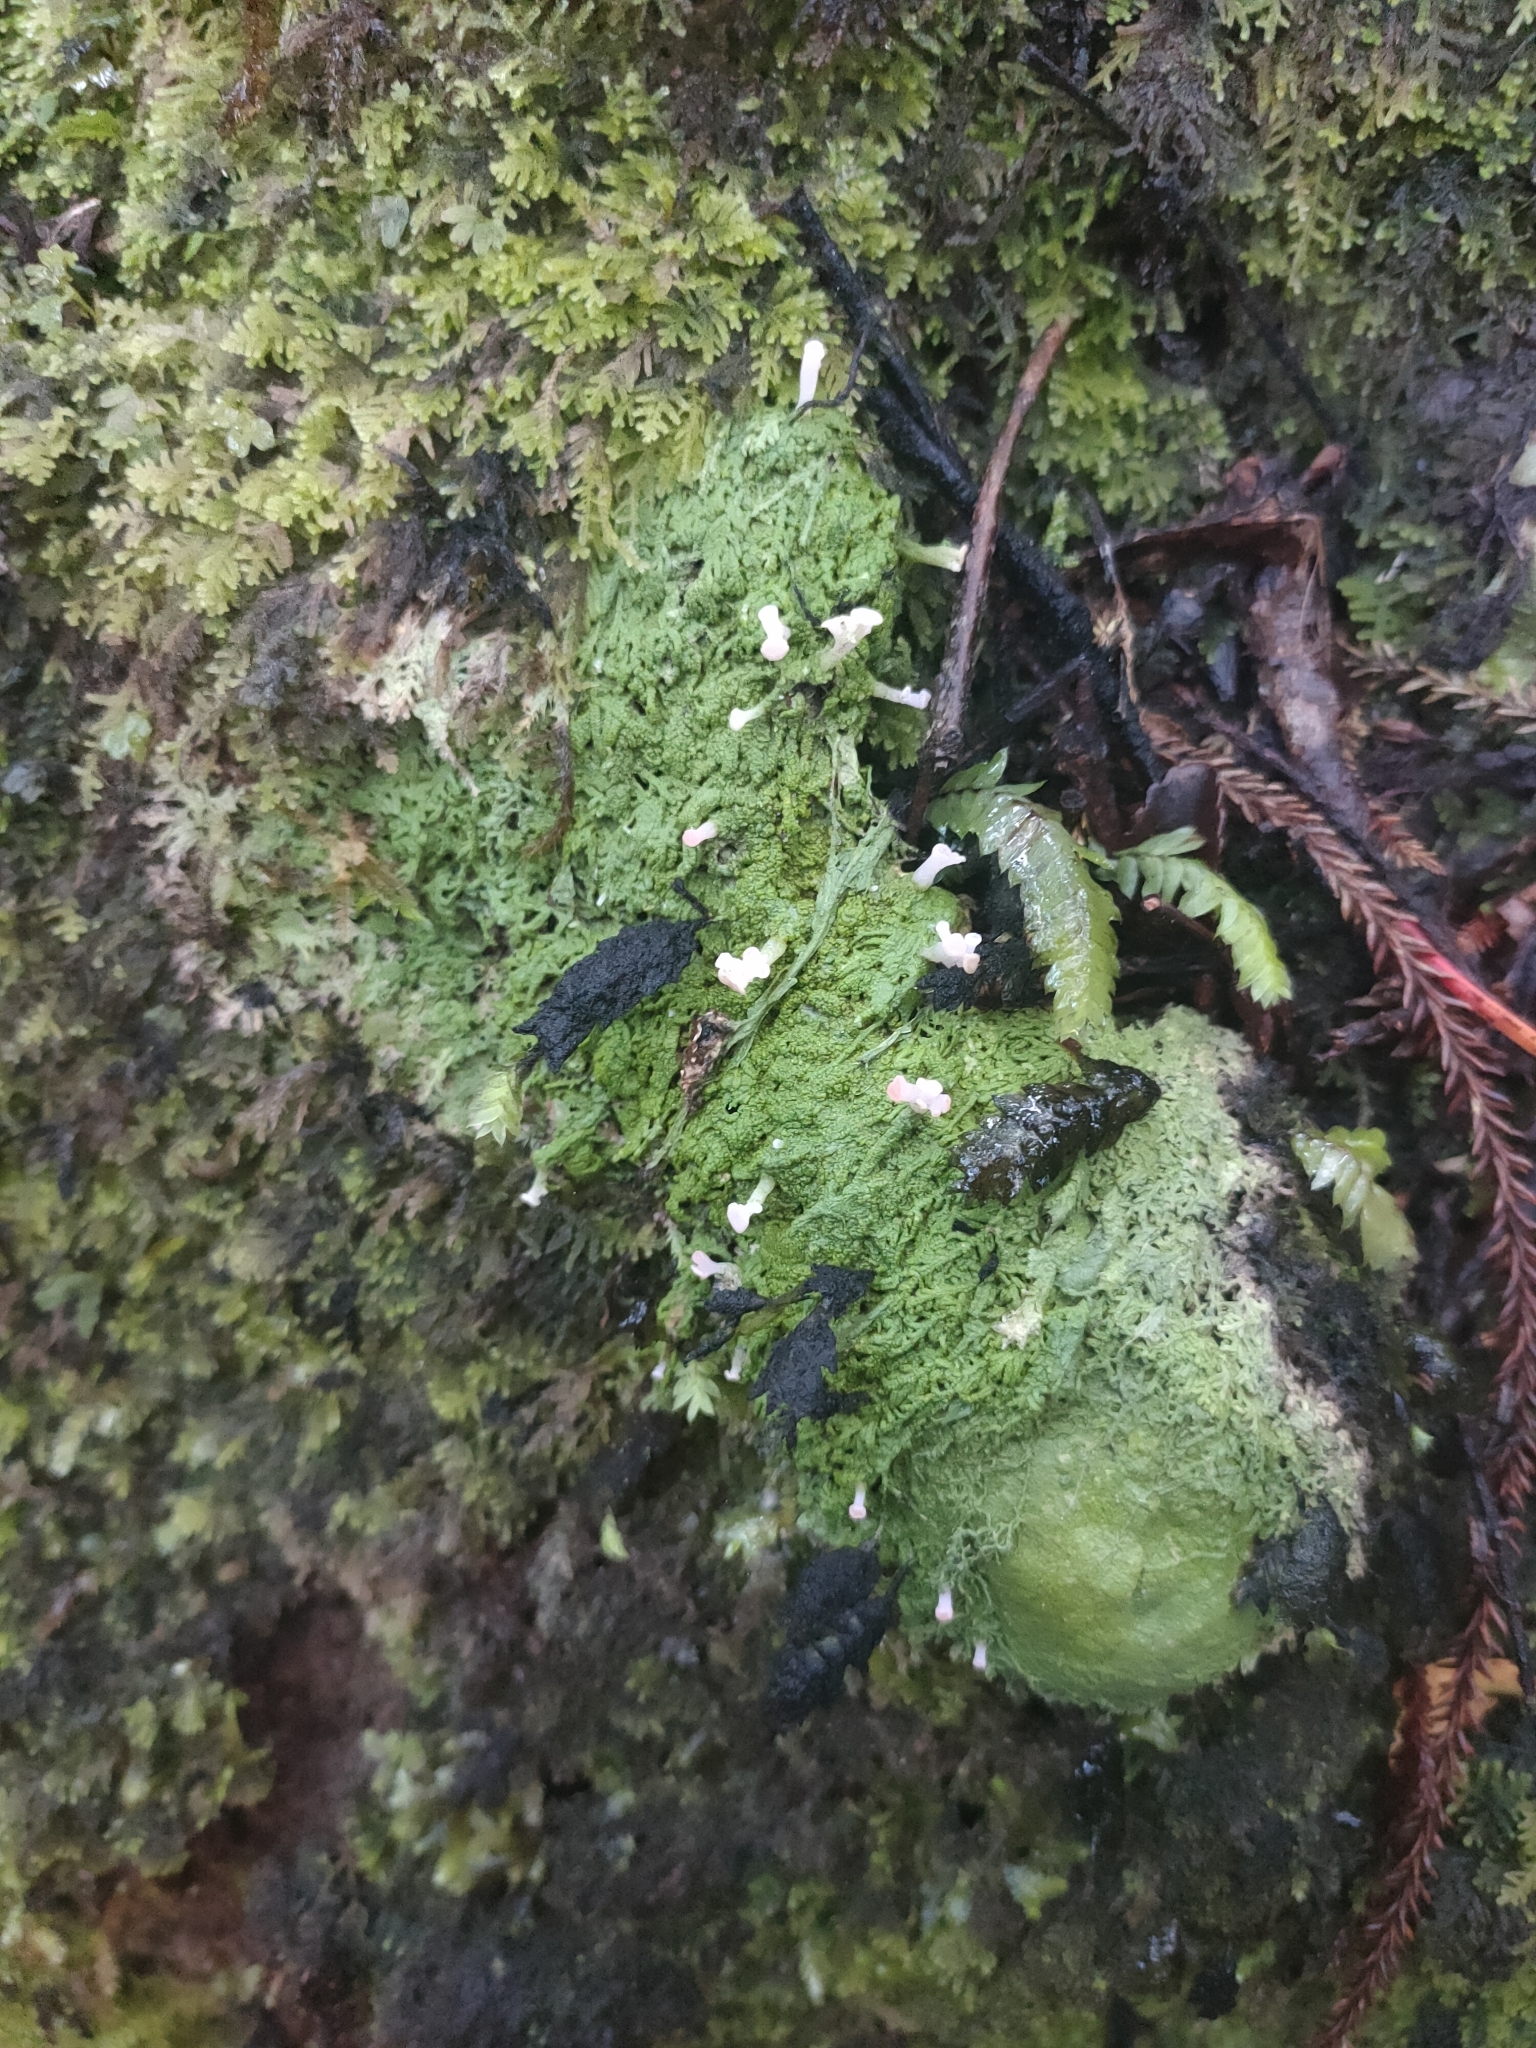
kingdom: Fungi
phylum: Ascomycota
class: Lecanoromycetes
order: Baeomycetales
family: Baeomycetaceae
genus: Baeomyces
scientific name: Baeomyces heteromorphus
